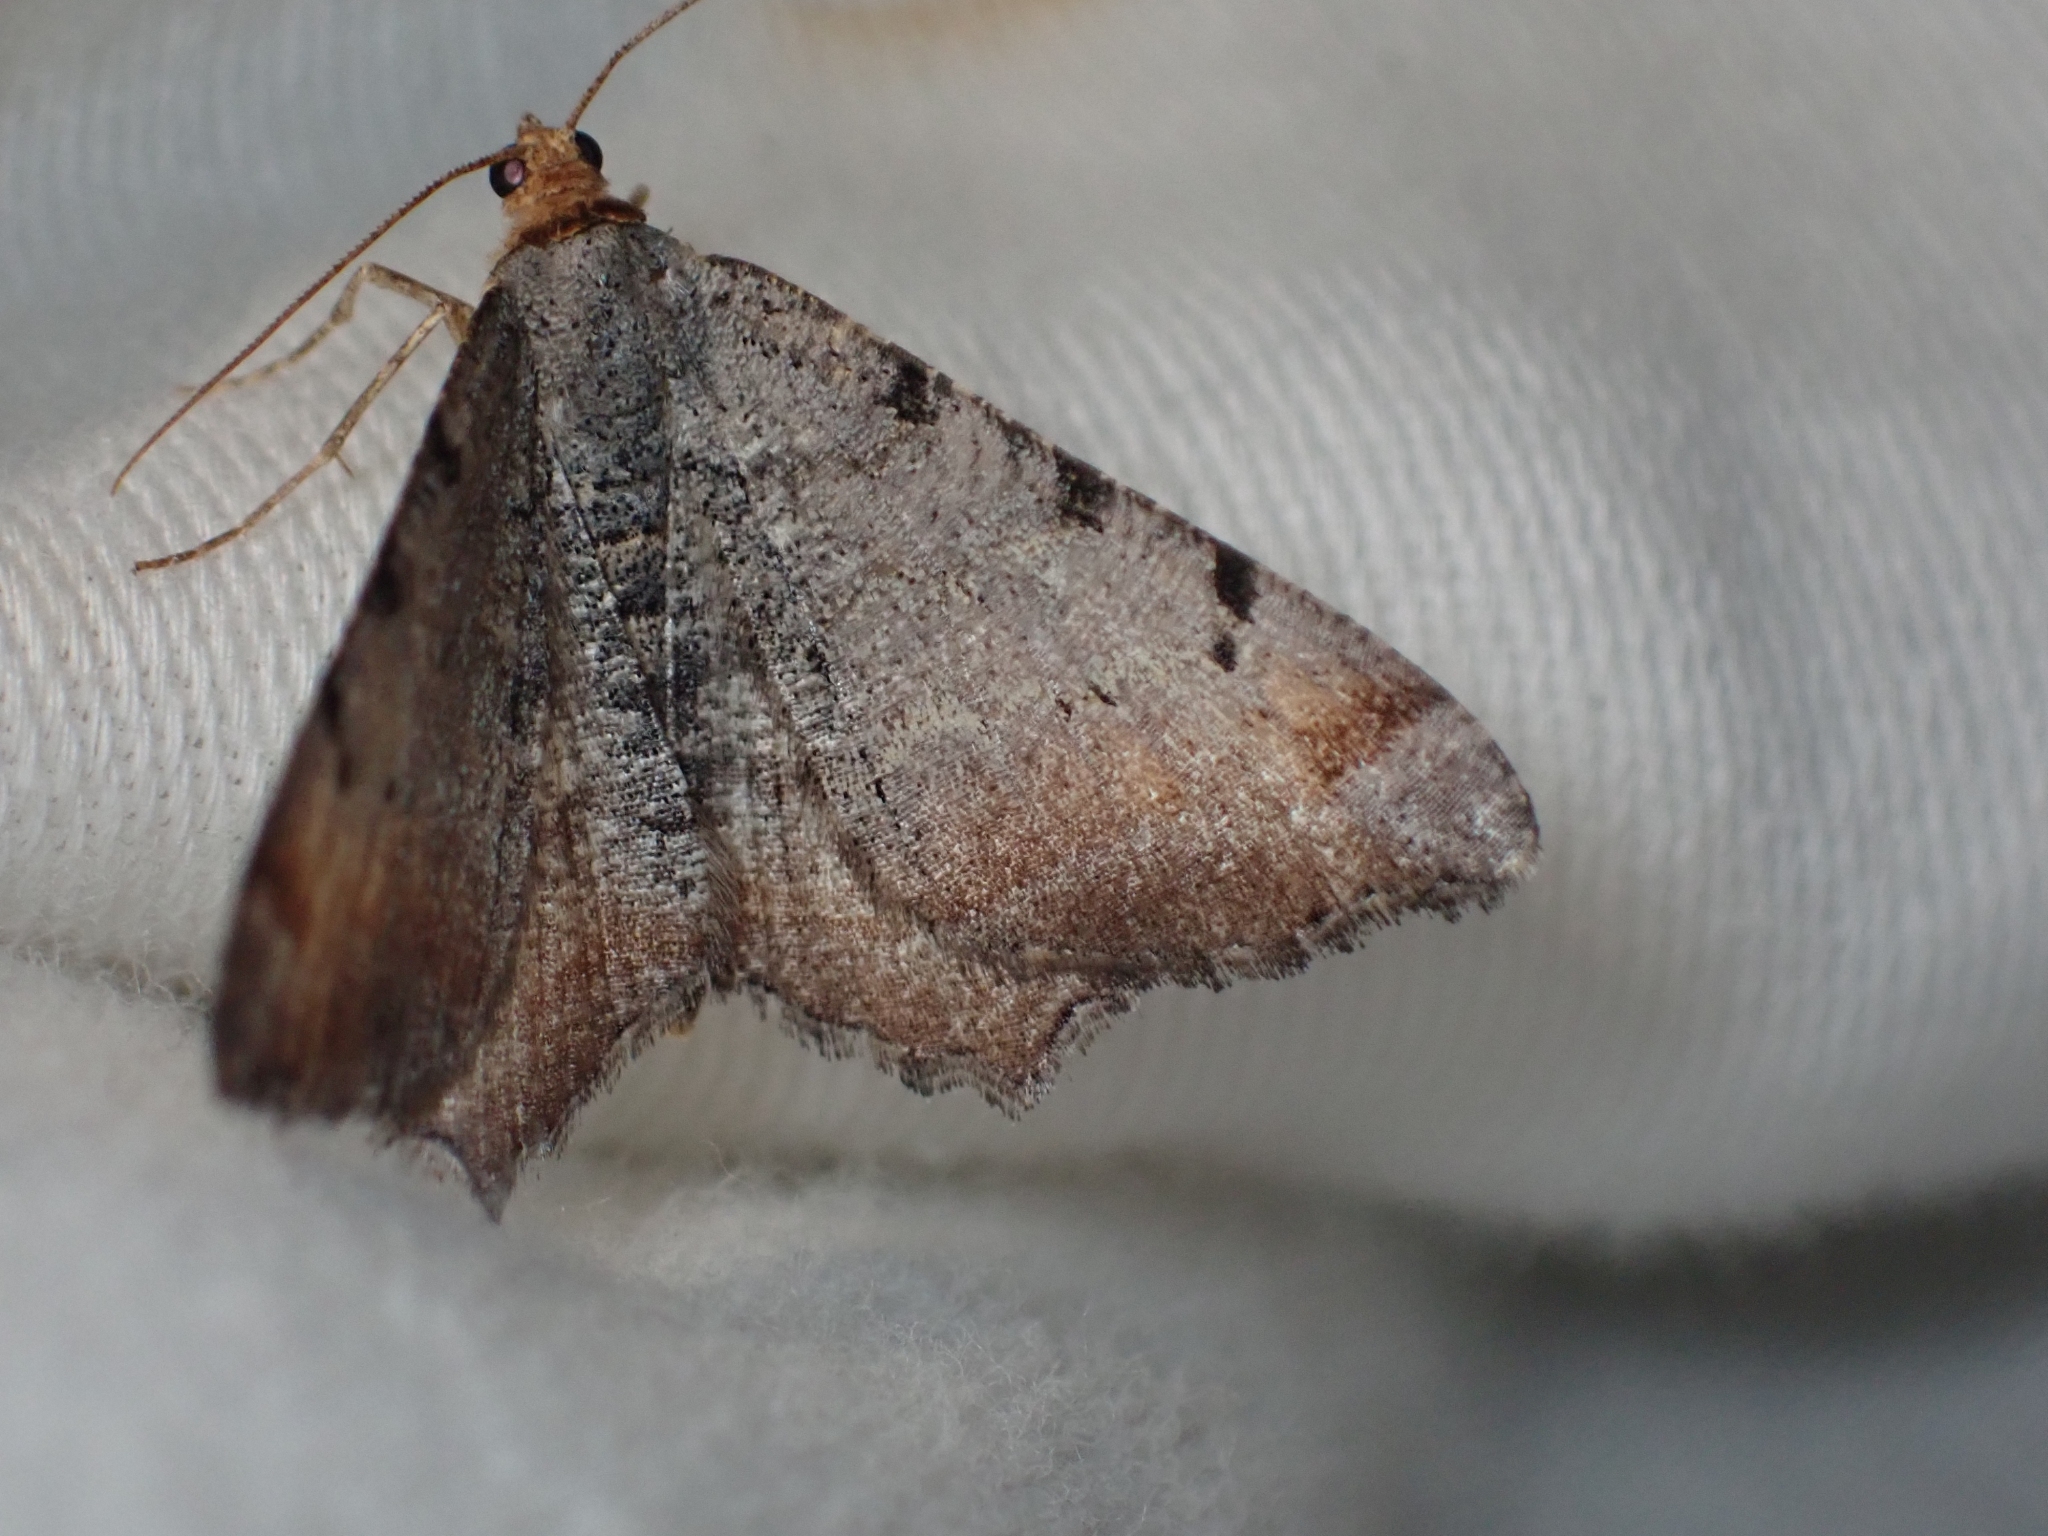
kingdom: Animalia
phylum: Arthropoda
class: Insecta
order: Lepidoptera
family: Geometridae
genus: Macaria
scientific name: Macaria adonis
